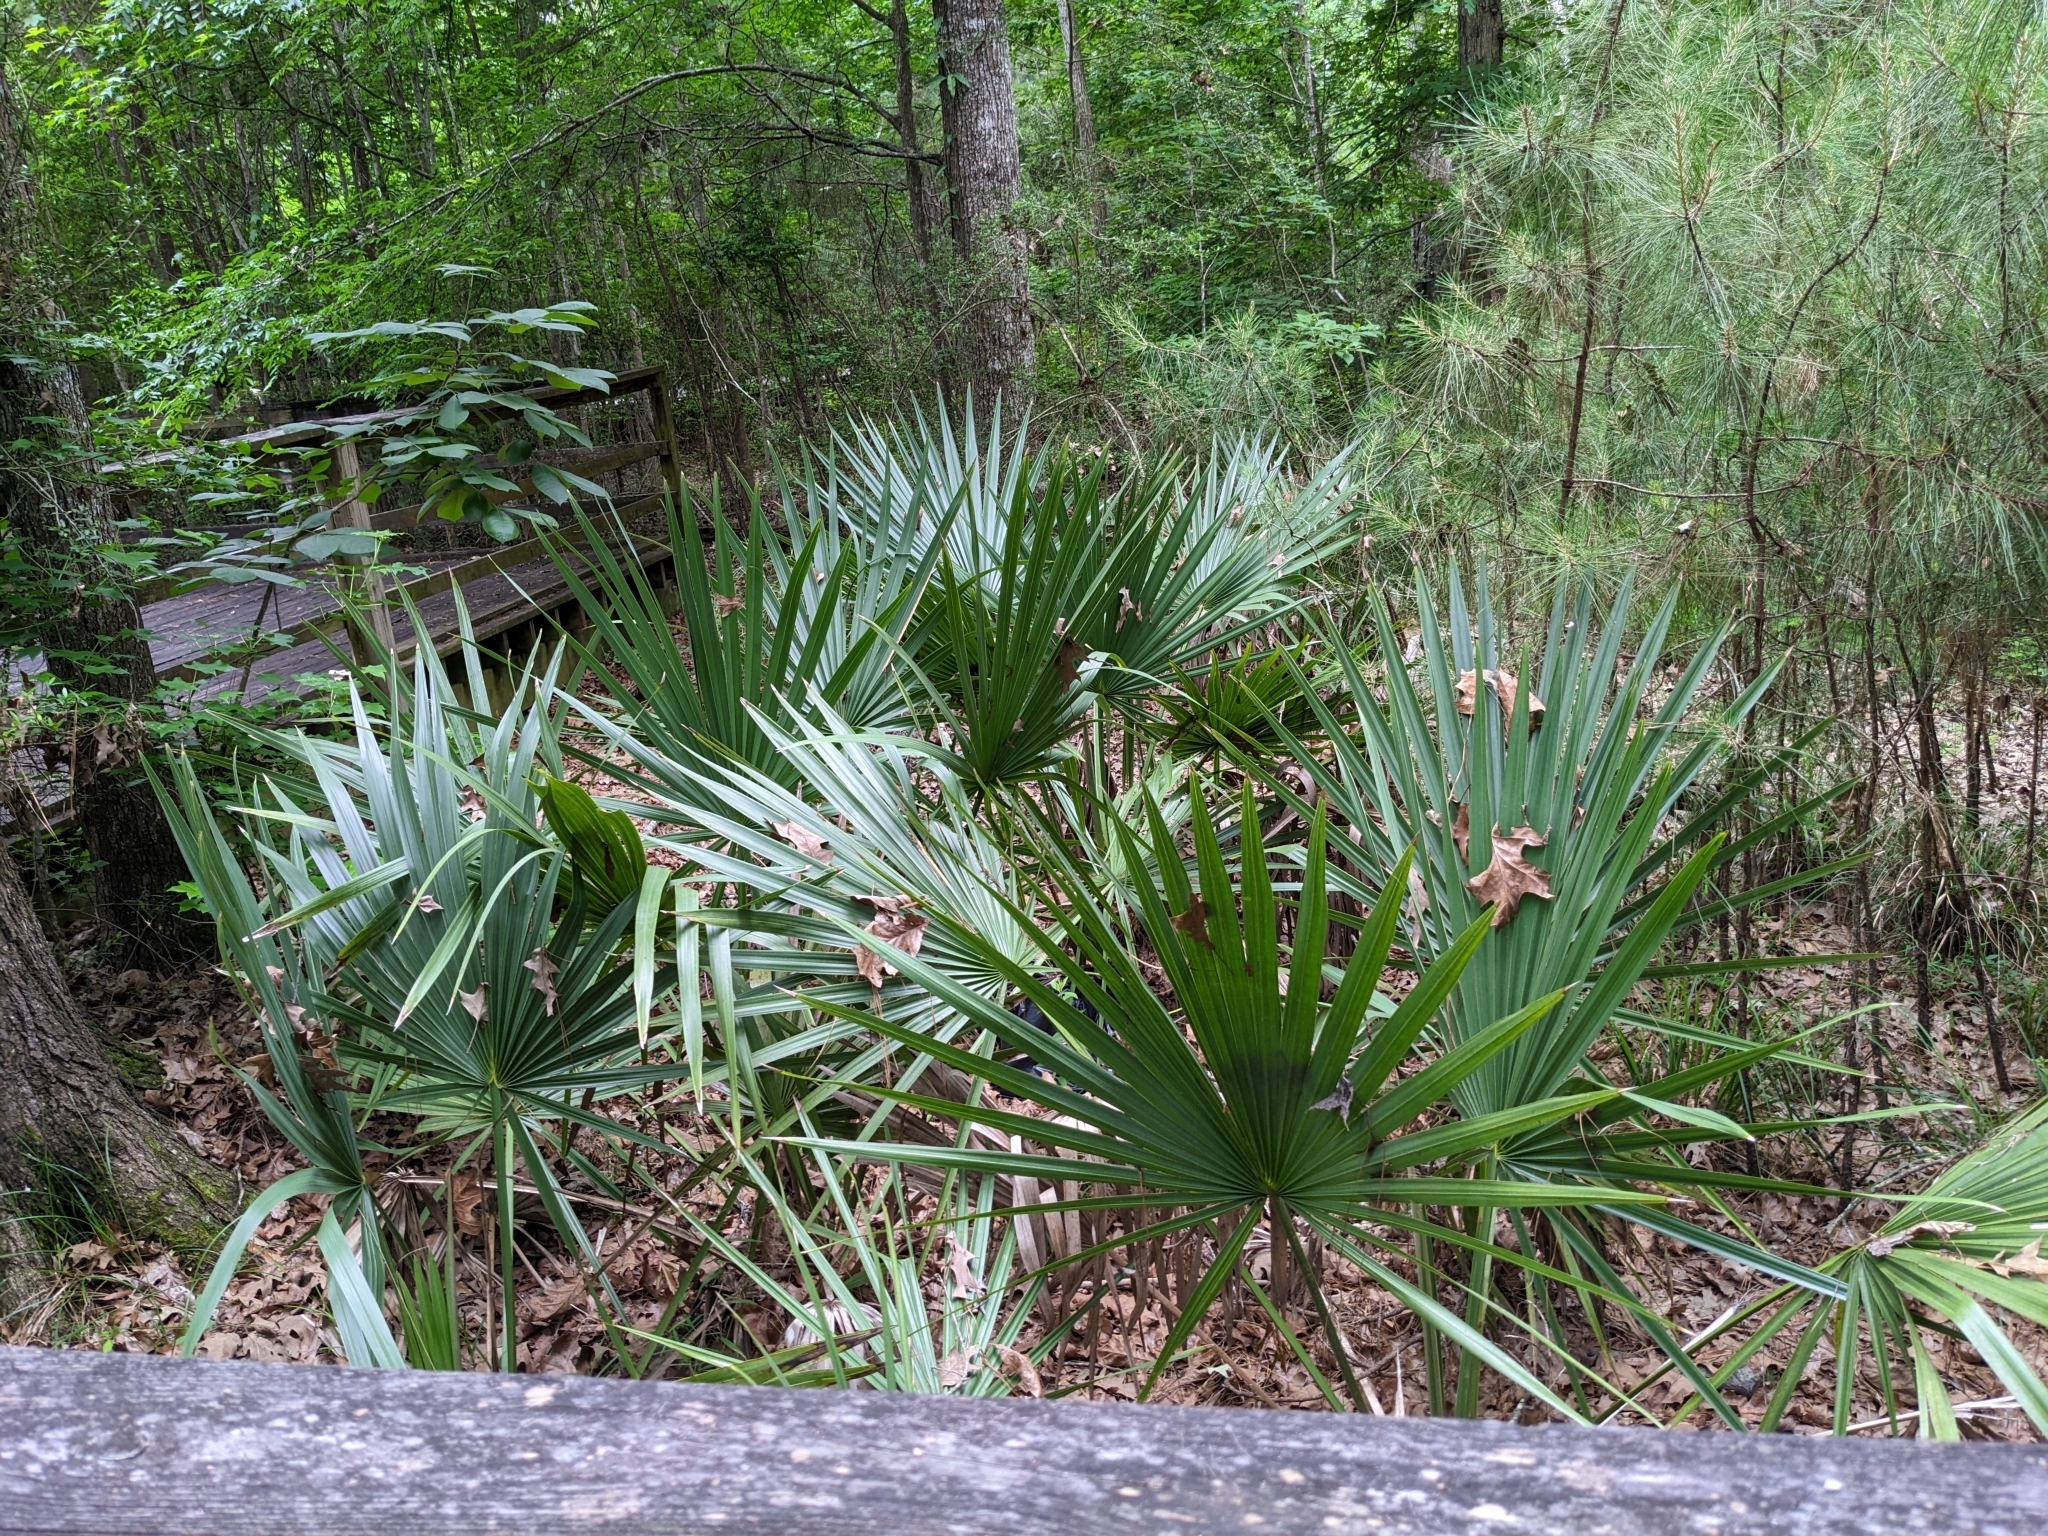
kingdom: Plantae
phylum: Tracheophyta
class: Liliopsida
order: Arecales
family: Arecaceae
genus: Sabal
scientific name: Sabal minor
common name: Dwarf palmetto
